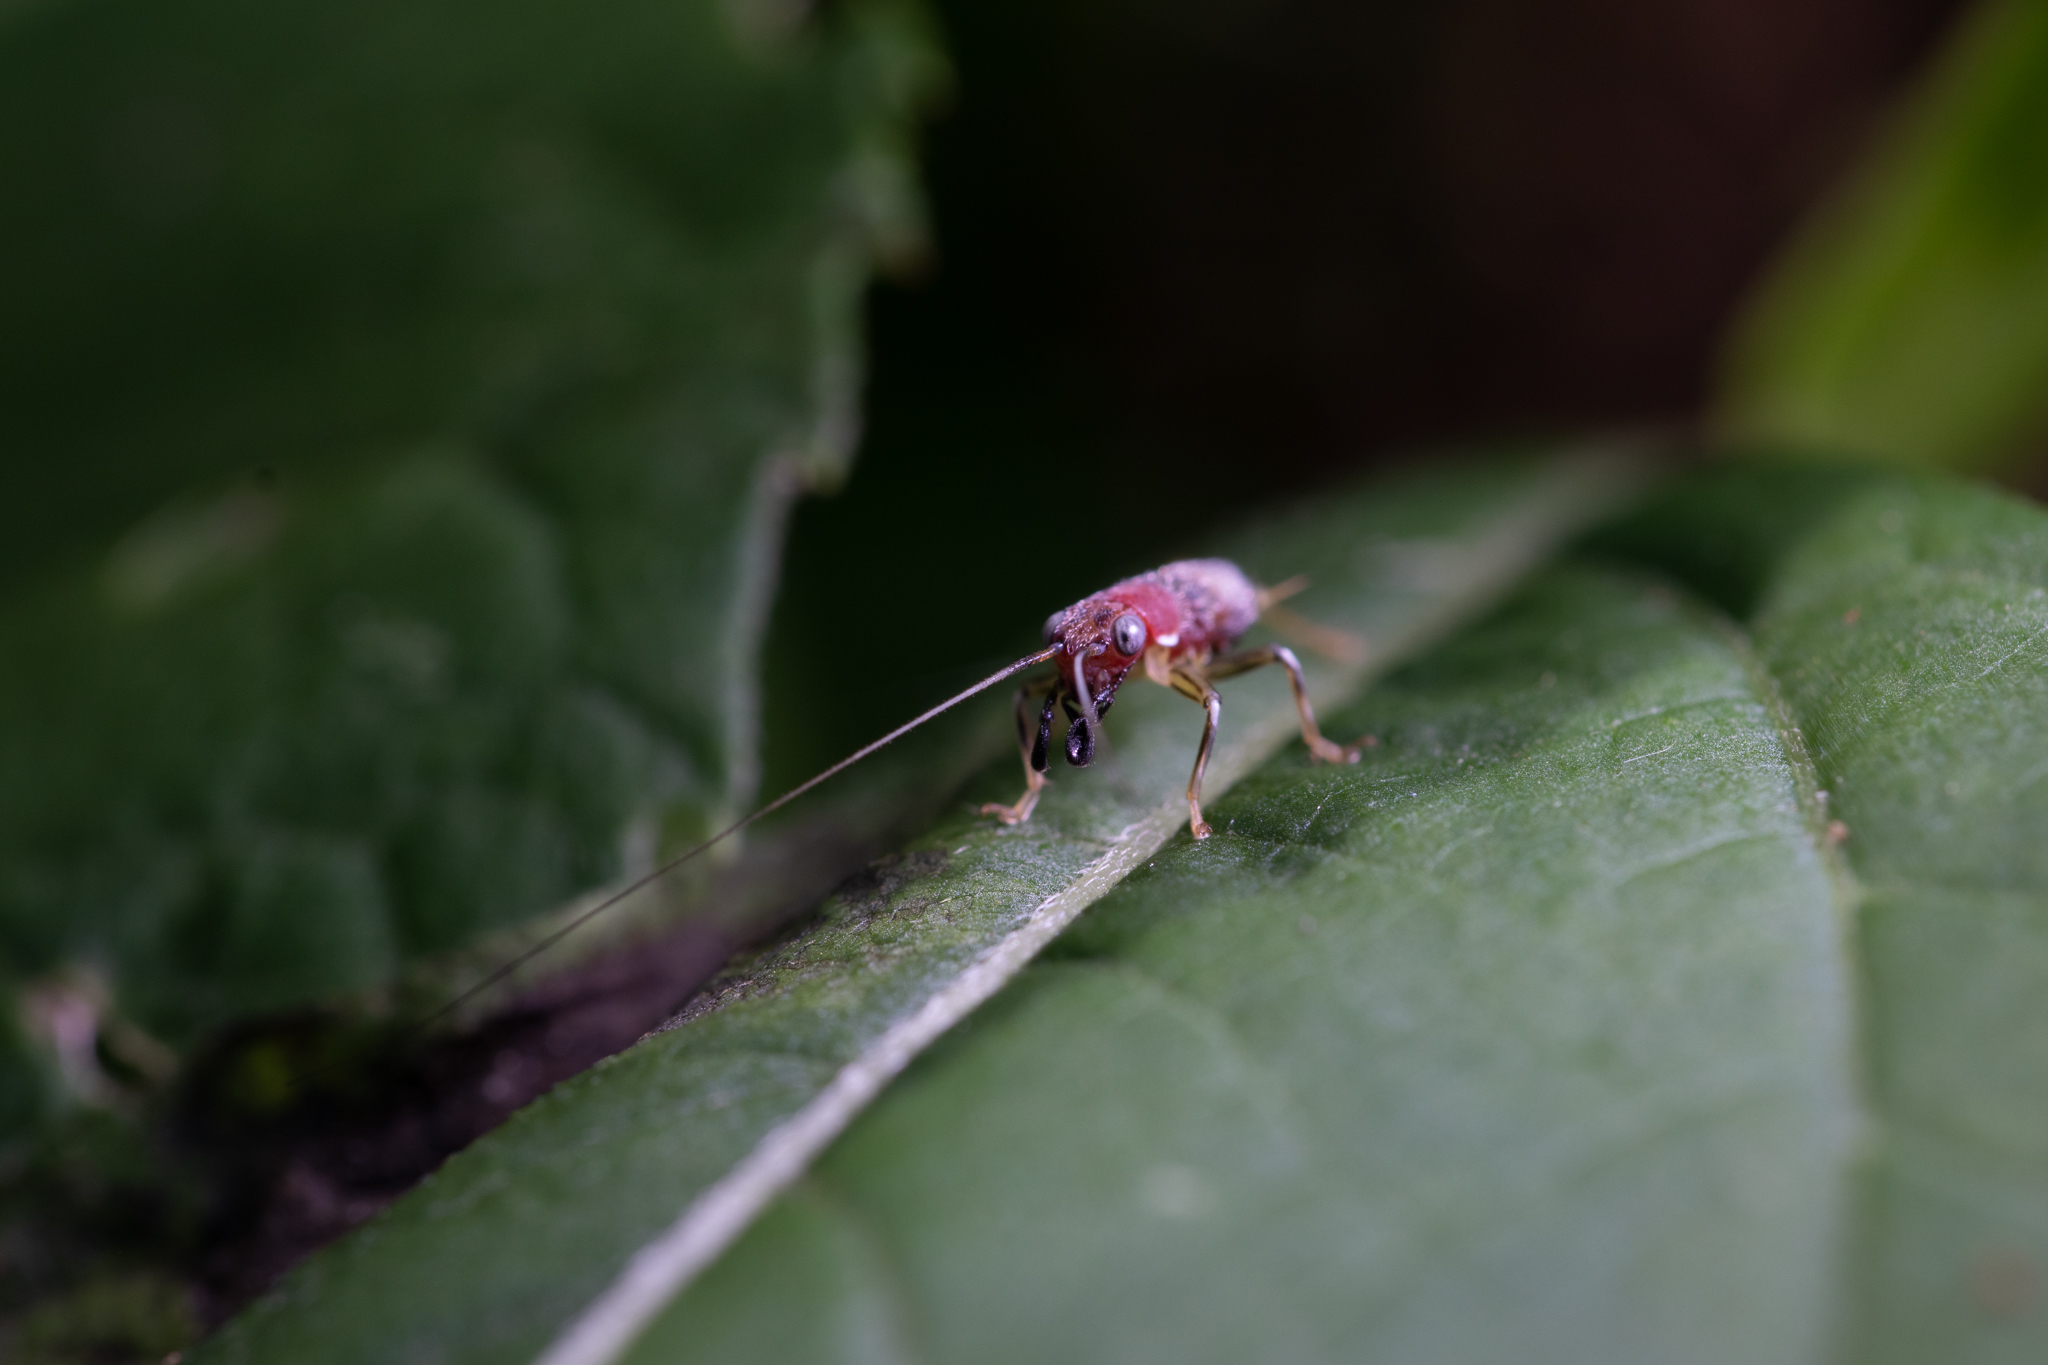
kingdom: Animalia
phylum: Arthropoda
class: Insecta
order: Orthoptera
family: Trigonidiidae
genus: Phyllopalpus
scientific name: Phyllopalpus pulchellus
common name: Handsome trig
